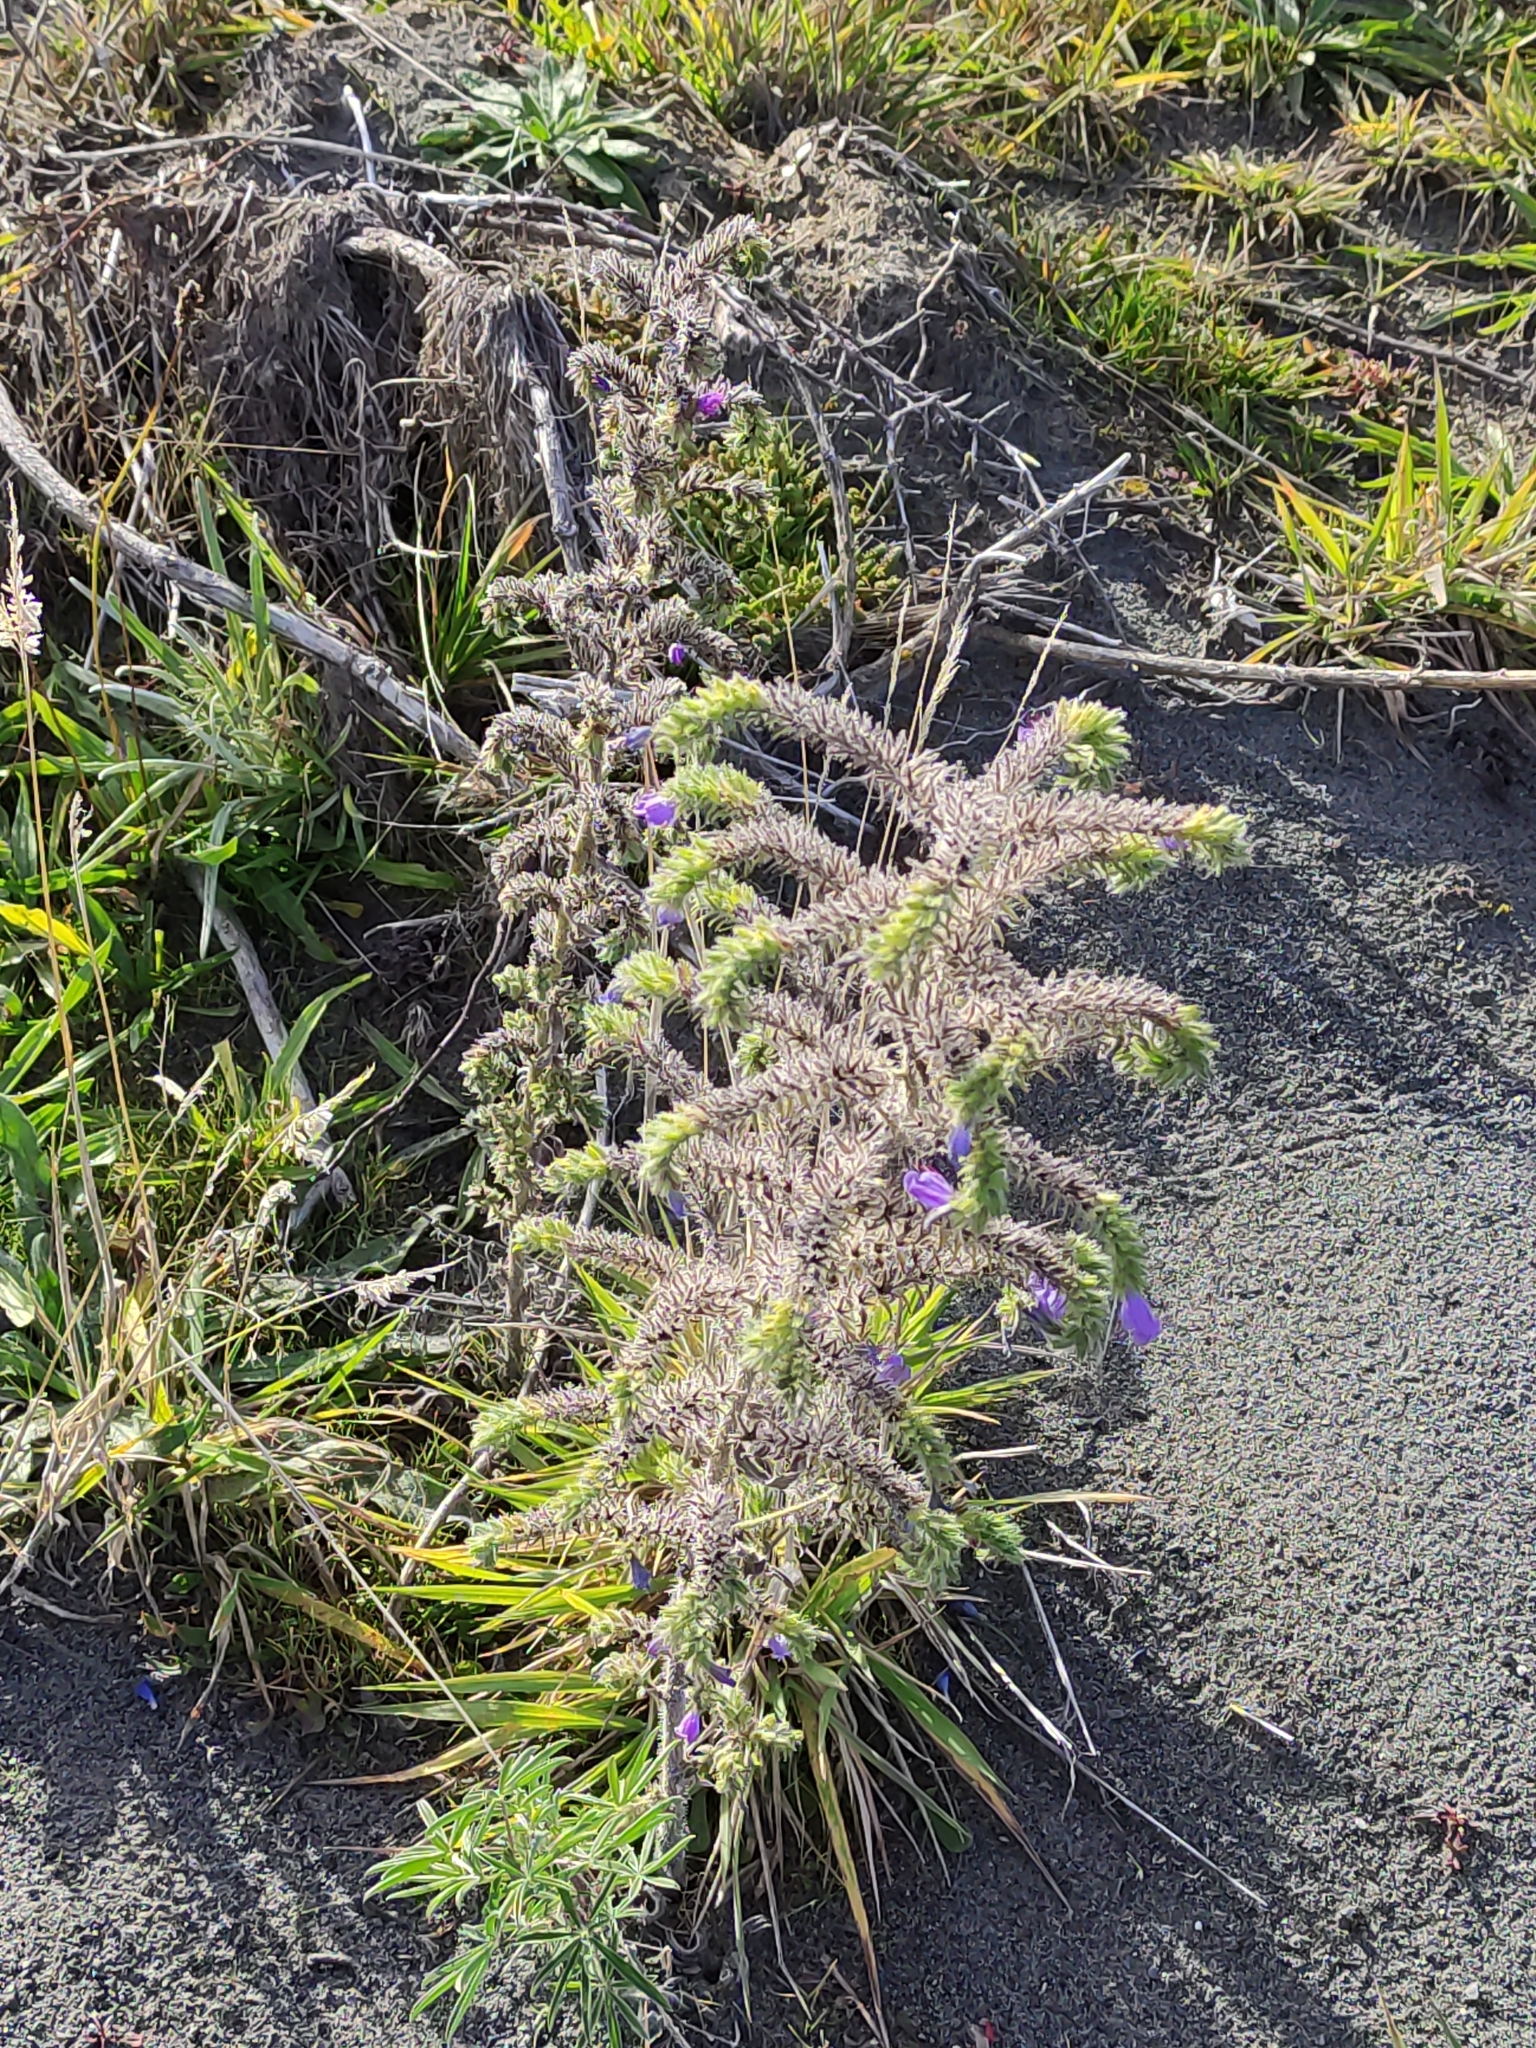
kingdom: Plantae
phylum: Tracheophyta
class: Magnoliopsida
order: Boraginales
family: Boraginaceae
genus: Echium
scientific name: Echium vulgare
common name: Common viper's bugloss
